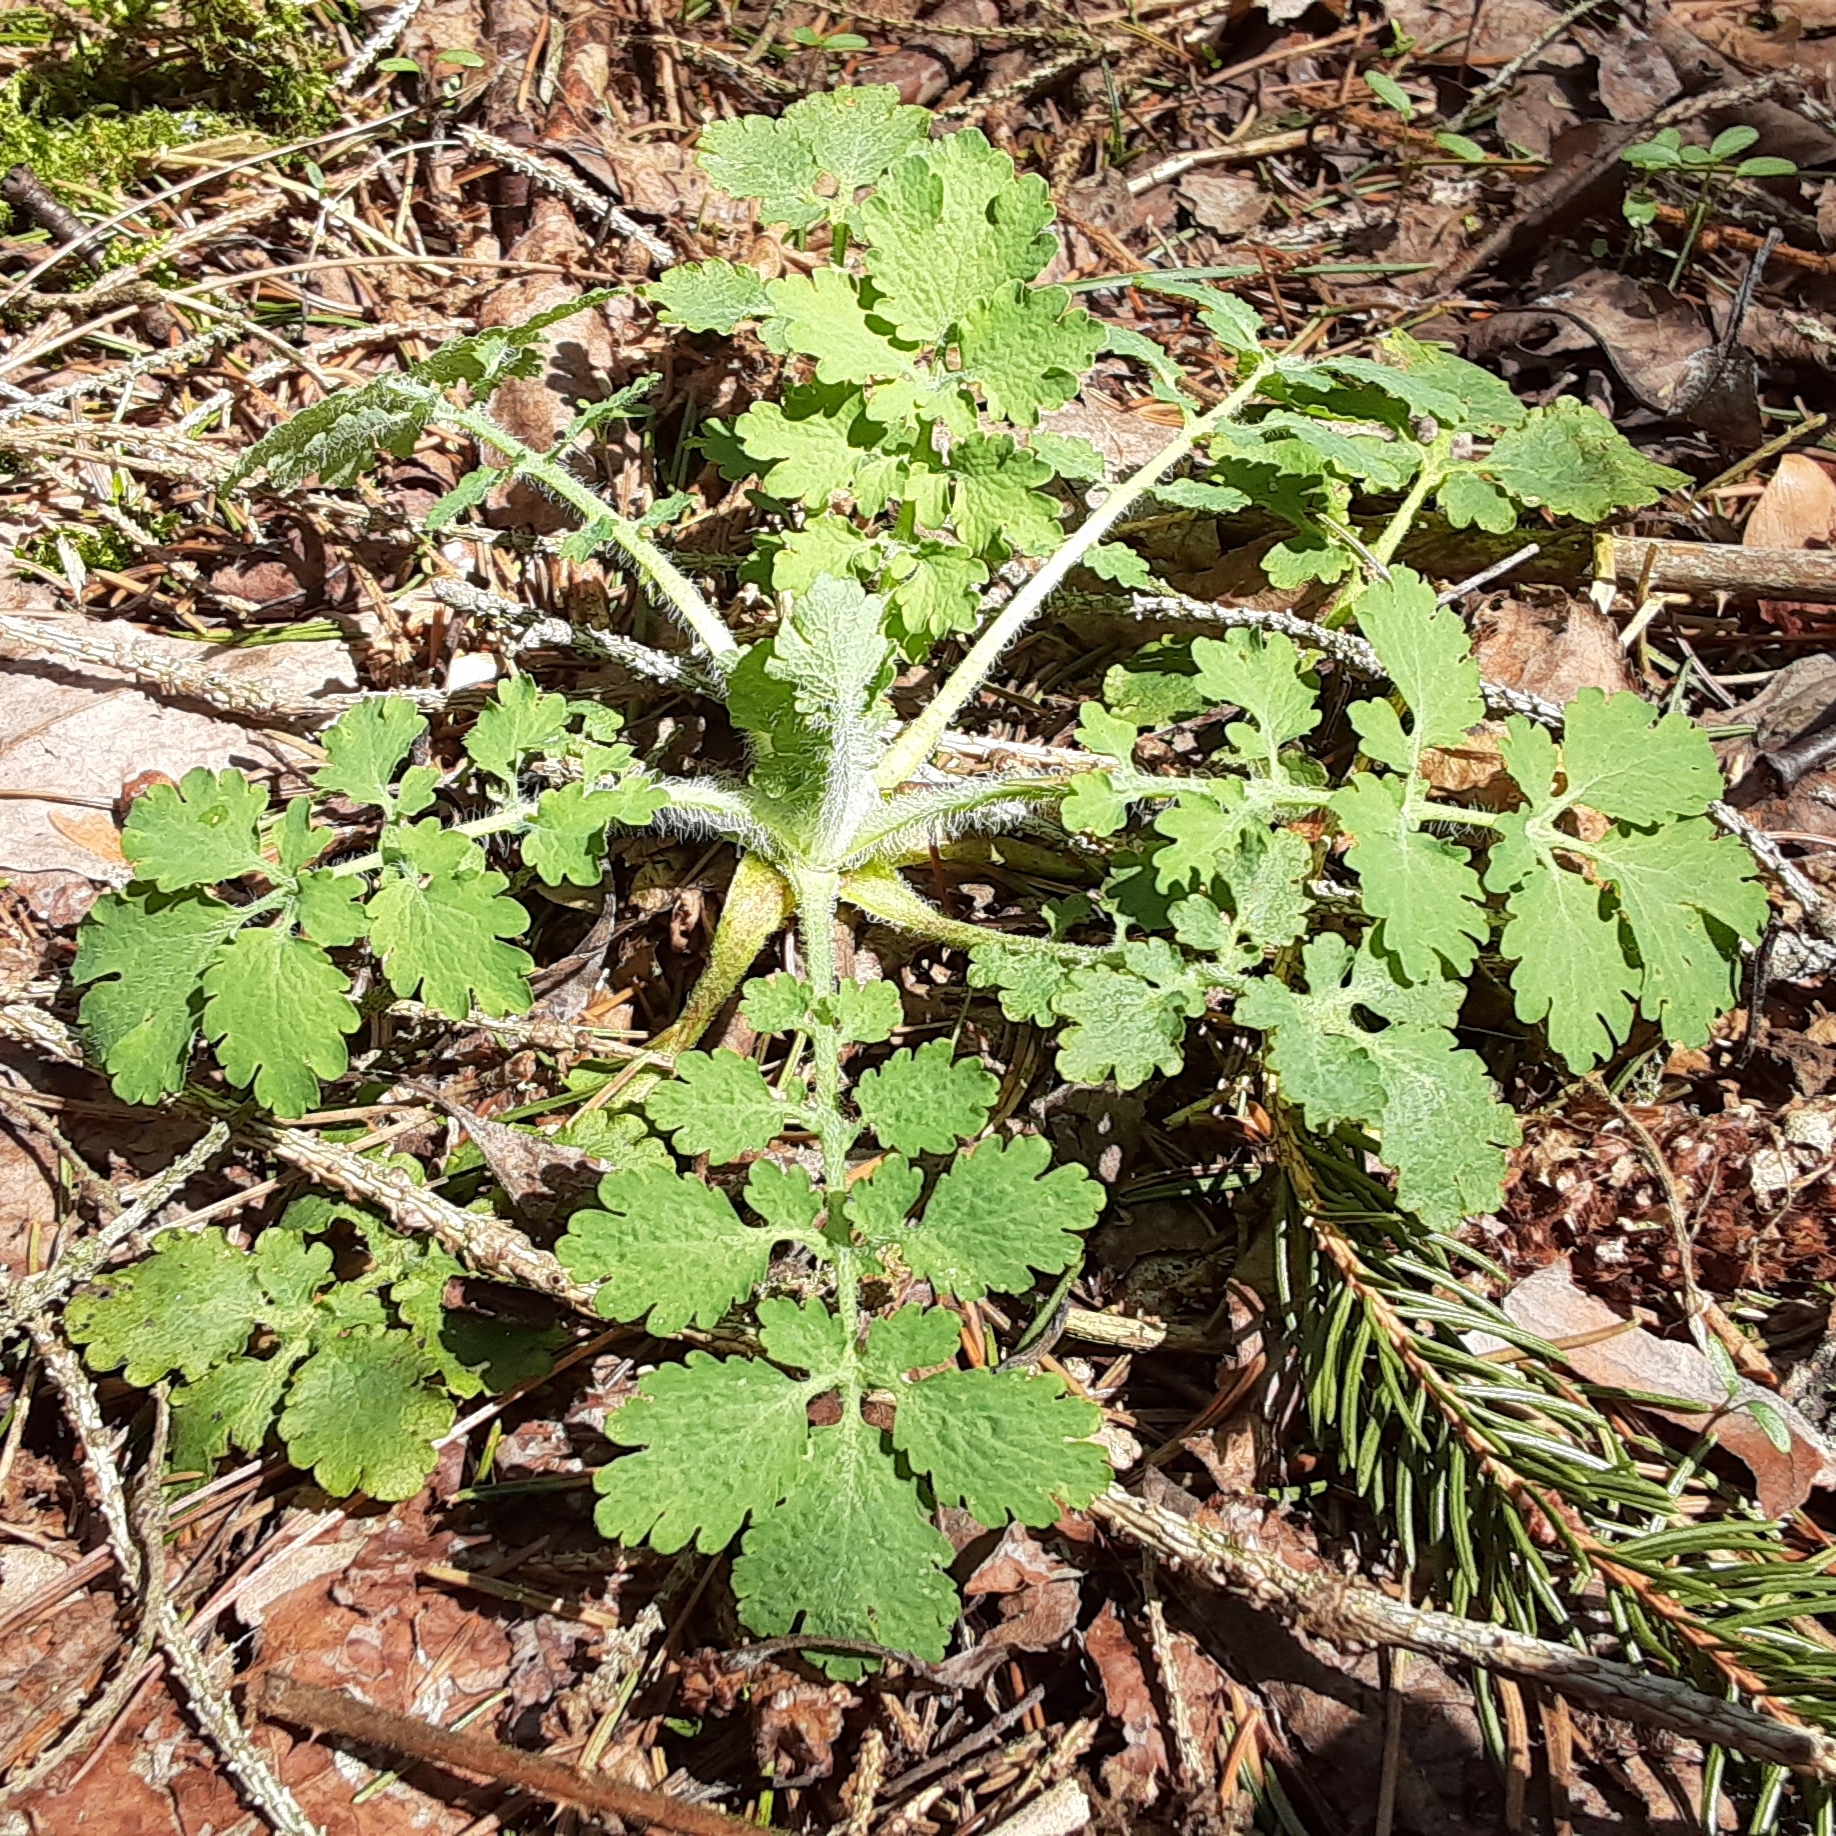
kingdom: Plantae
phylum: Tracheophyta
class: Magnoliopsida
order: Ranunculales
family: Papaveraceae
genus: Chelidonium
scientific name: Chelidonium majus
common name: Greater celandine
